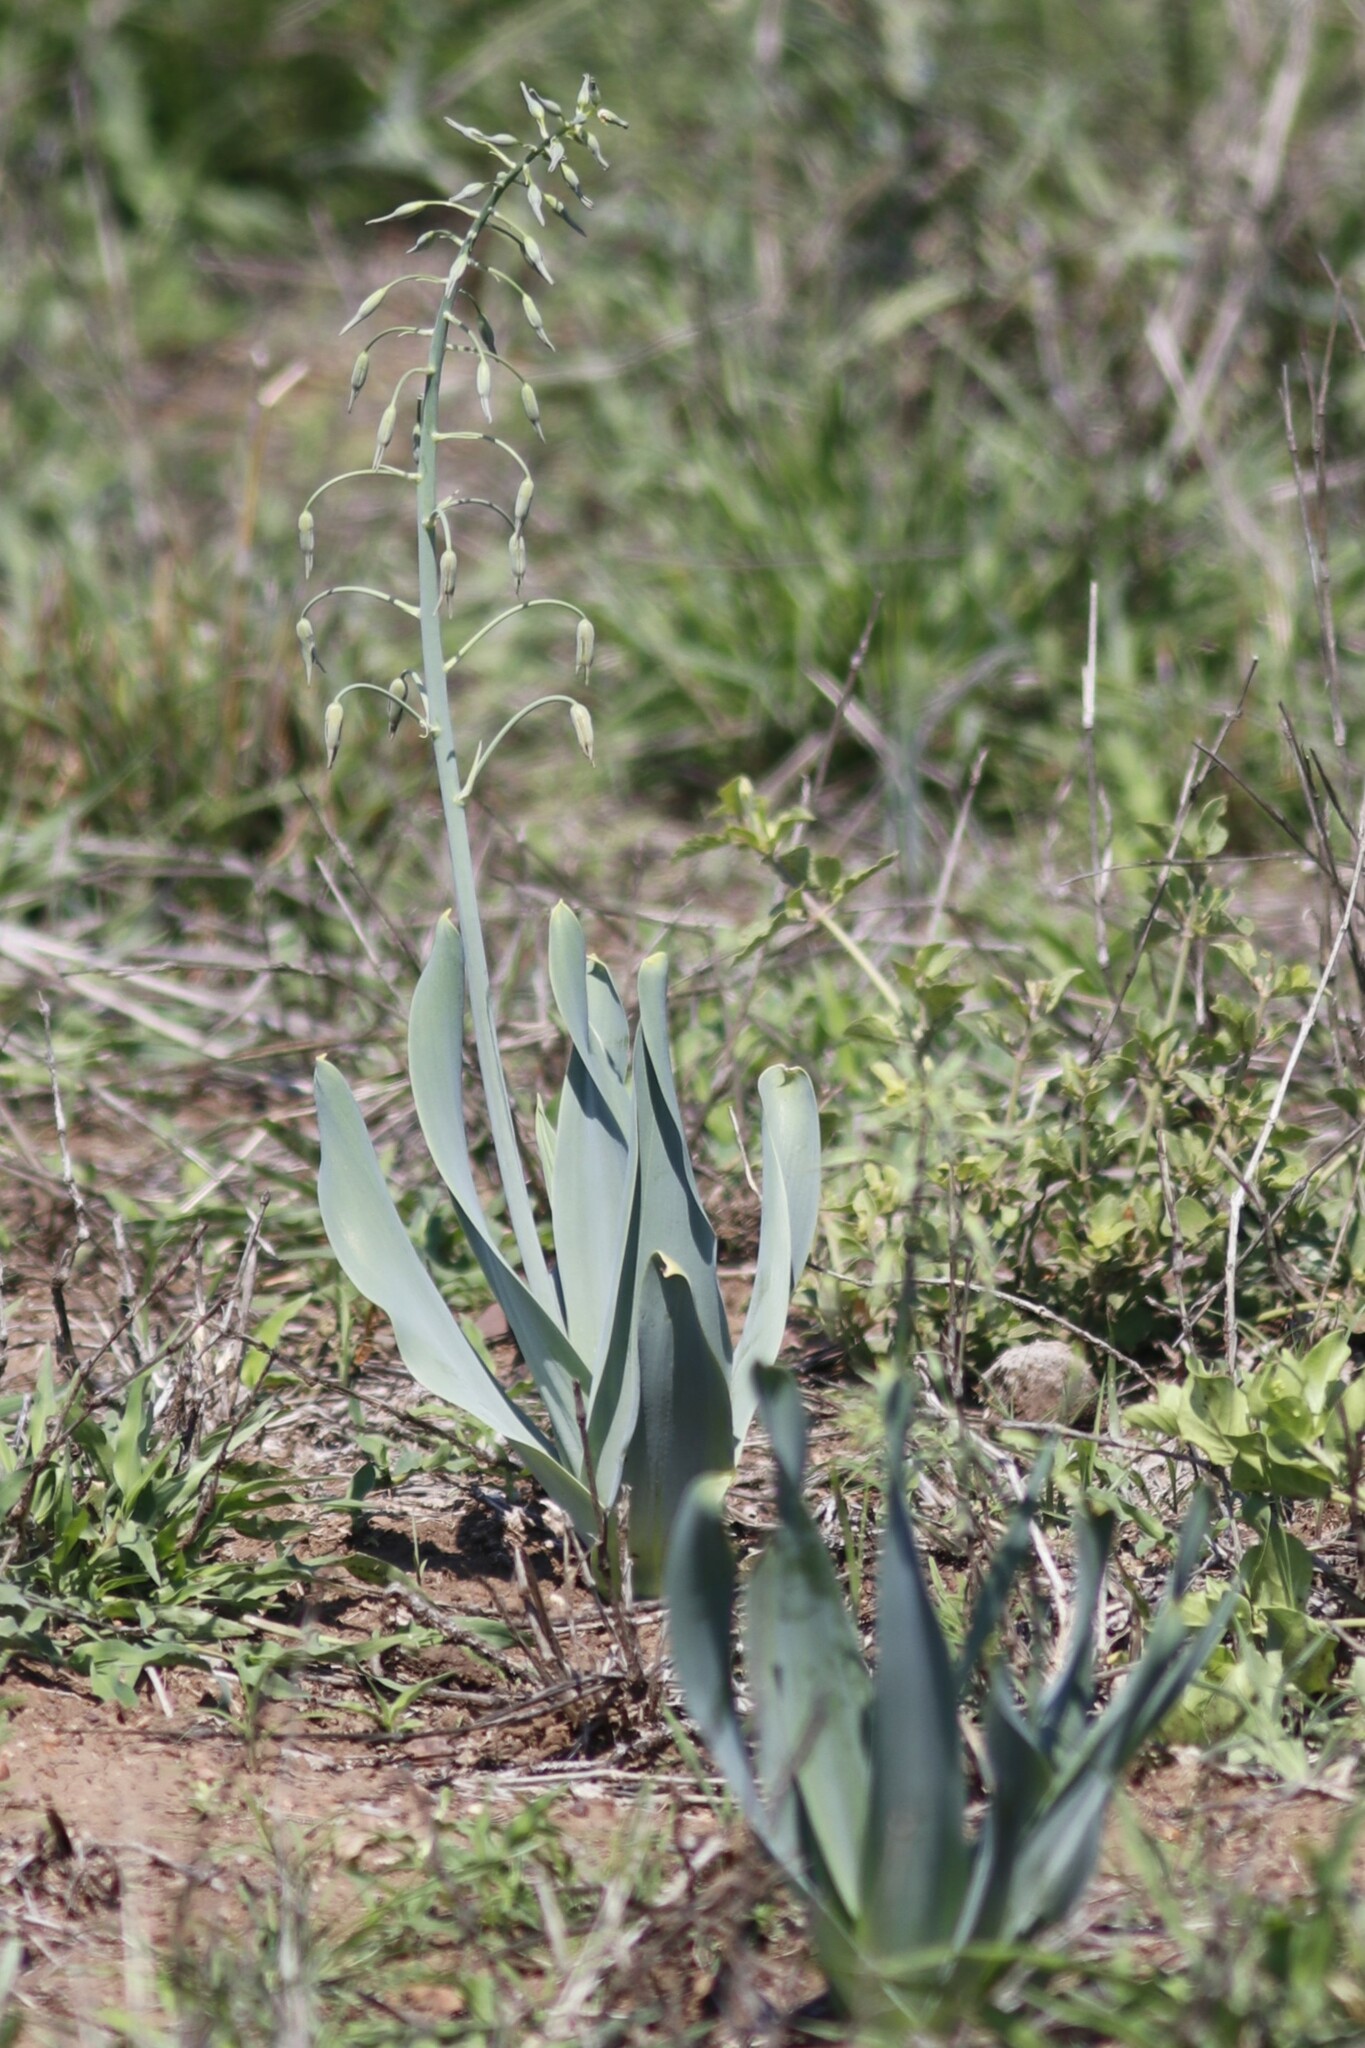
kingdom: Plantae
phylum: Tracheophyta
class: Liliopsida
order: Asparagales
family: Asparagaceae
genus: Dipcadi
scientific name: Dipcadi glaucum
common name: Wild onion
